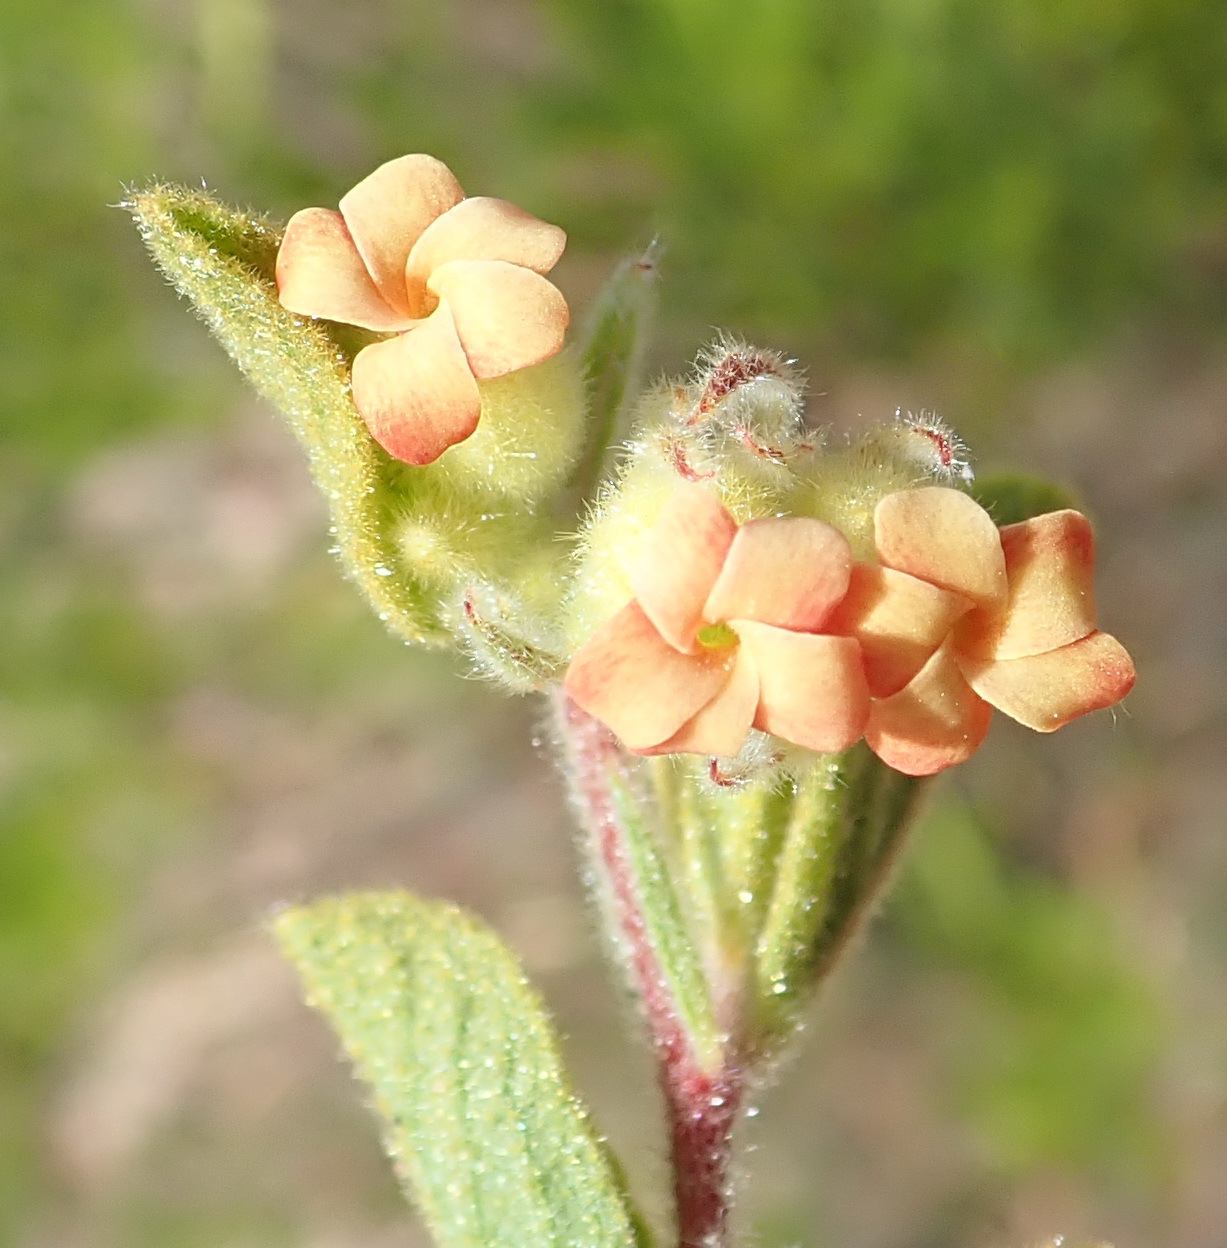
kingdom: Plantae
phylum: Tracheophyta
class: Magnoliopsida
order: Malvales
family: Malvaceae
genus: Hermannia
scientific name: Hermannia salviifolia
